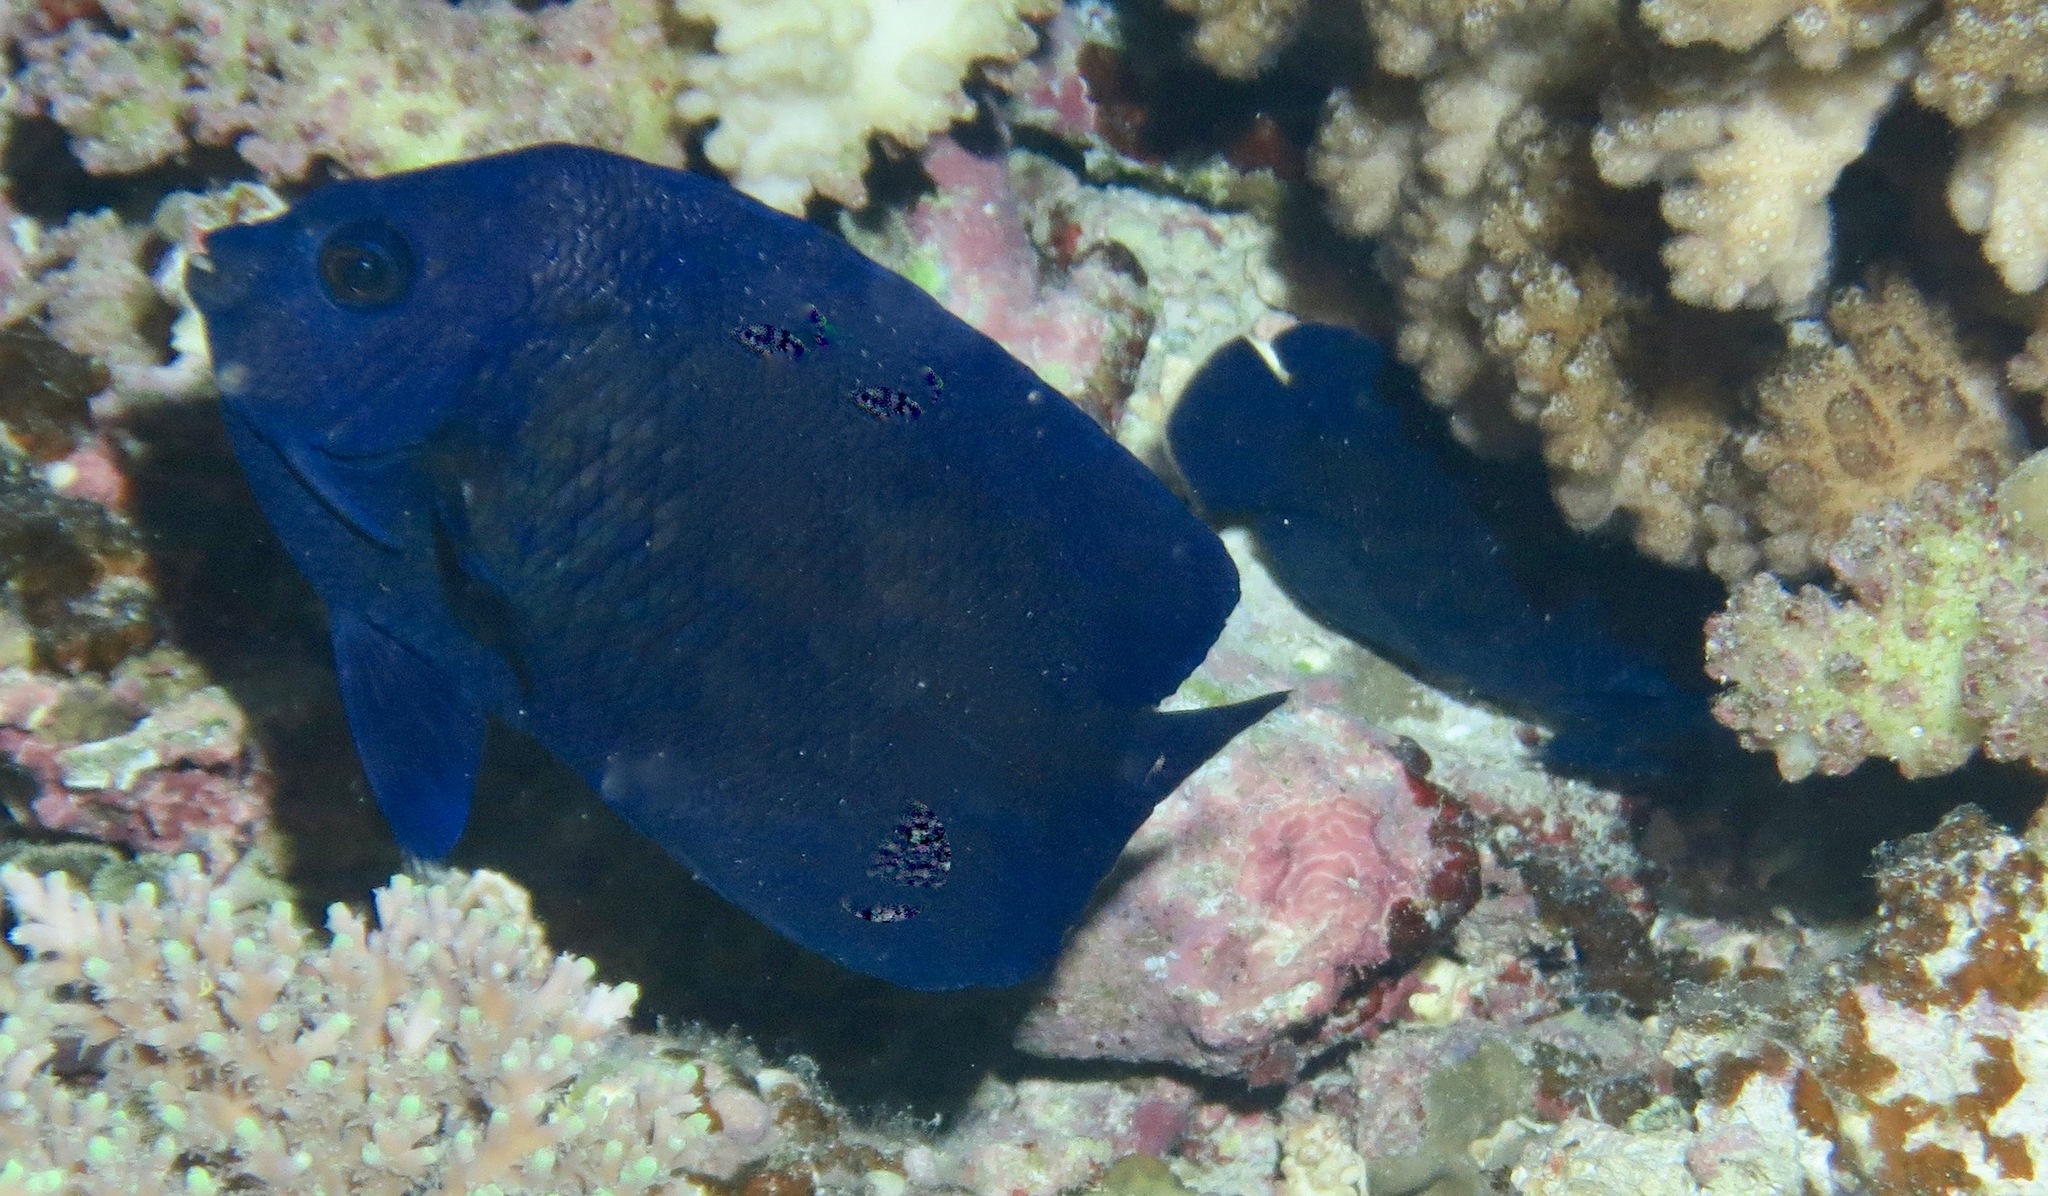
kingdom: Animalia
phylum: Chordata
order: Perciformes
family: Pomacanthidae
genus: Centropyge
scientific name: Centropyge deborae
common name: Blue velvet angelfish
